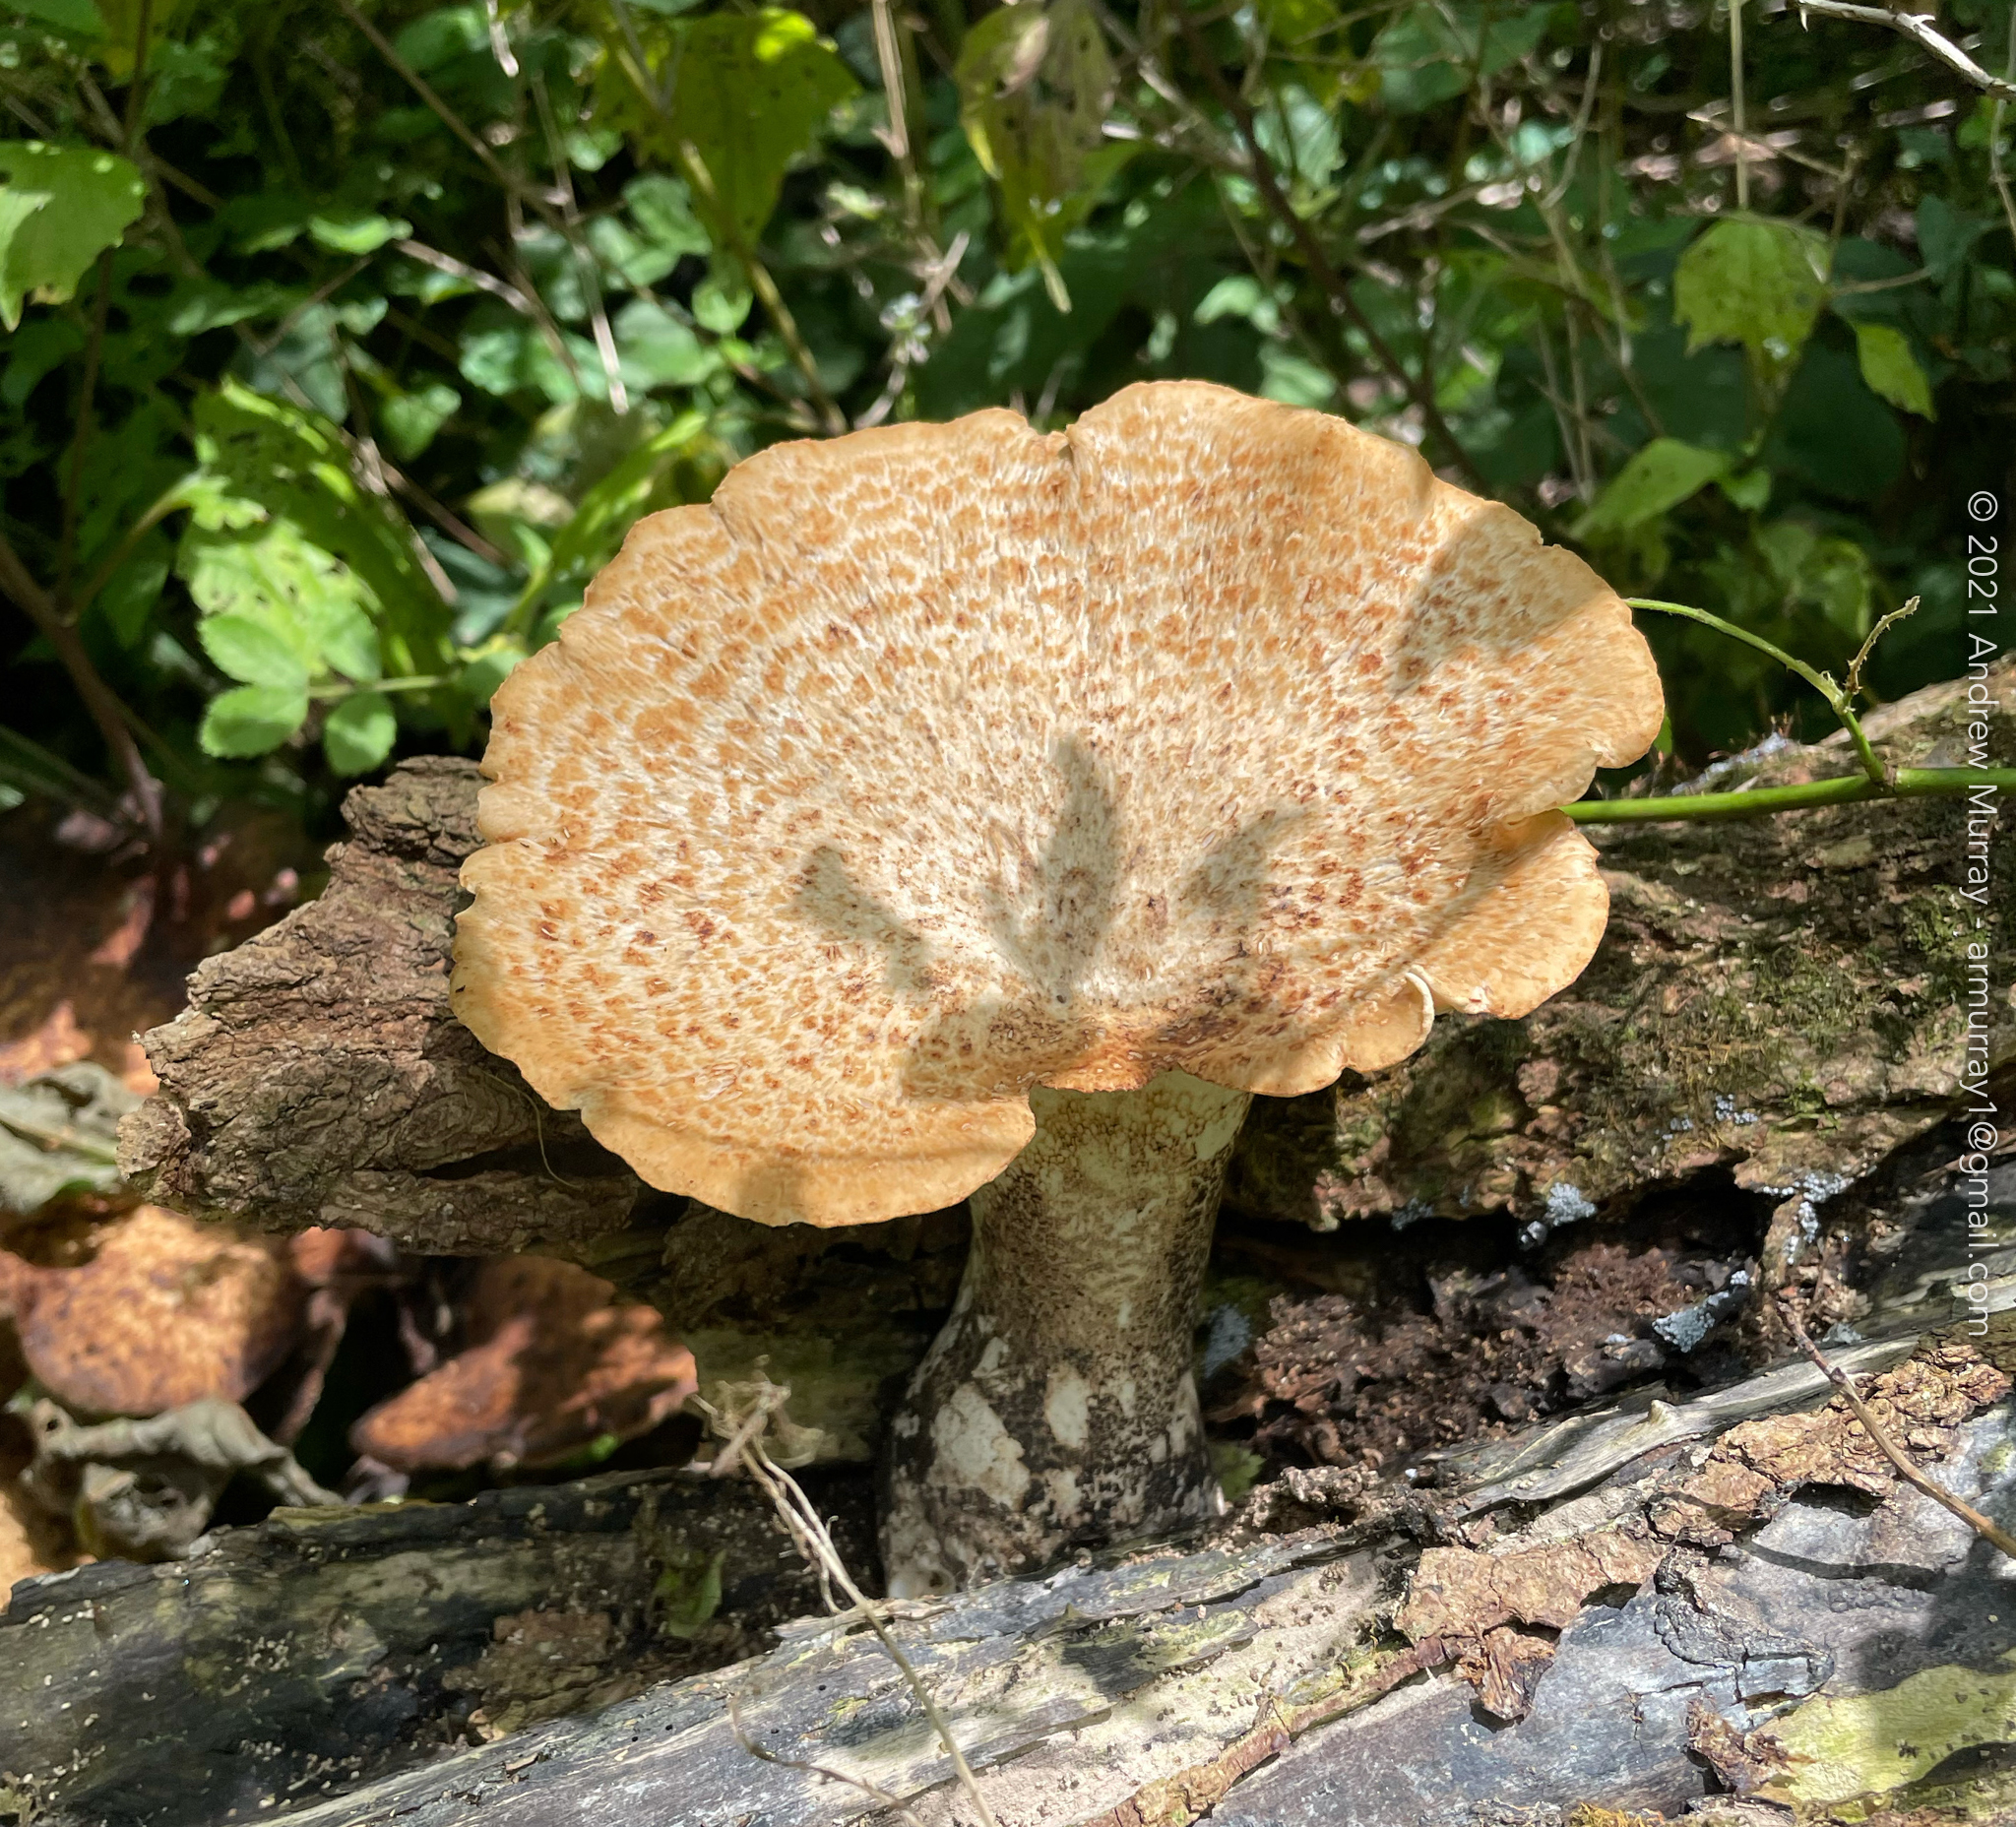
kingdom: Fungi
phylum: Basidiomycota
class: Agaricomycetes
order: Polyporales
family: Polyporaceae
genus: Cerioporus
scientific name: Cerioporus squamosus
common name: Dryad's saddle
